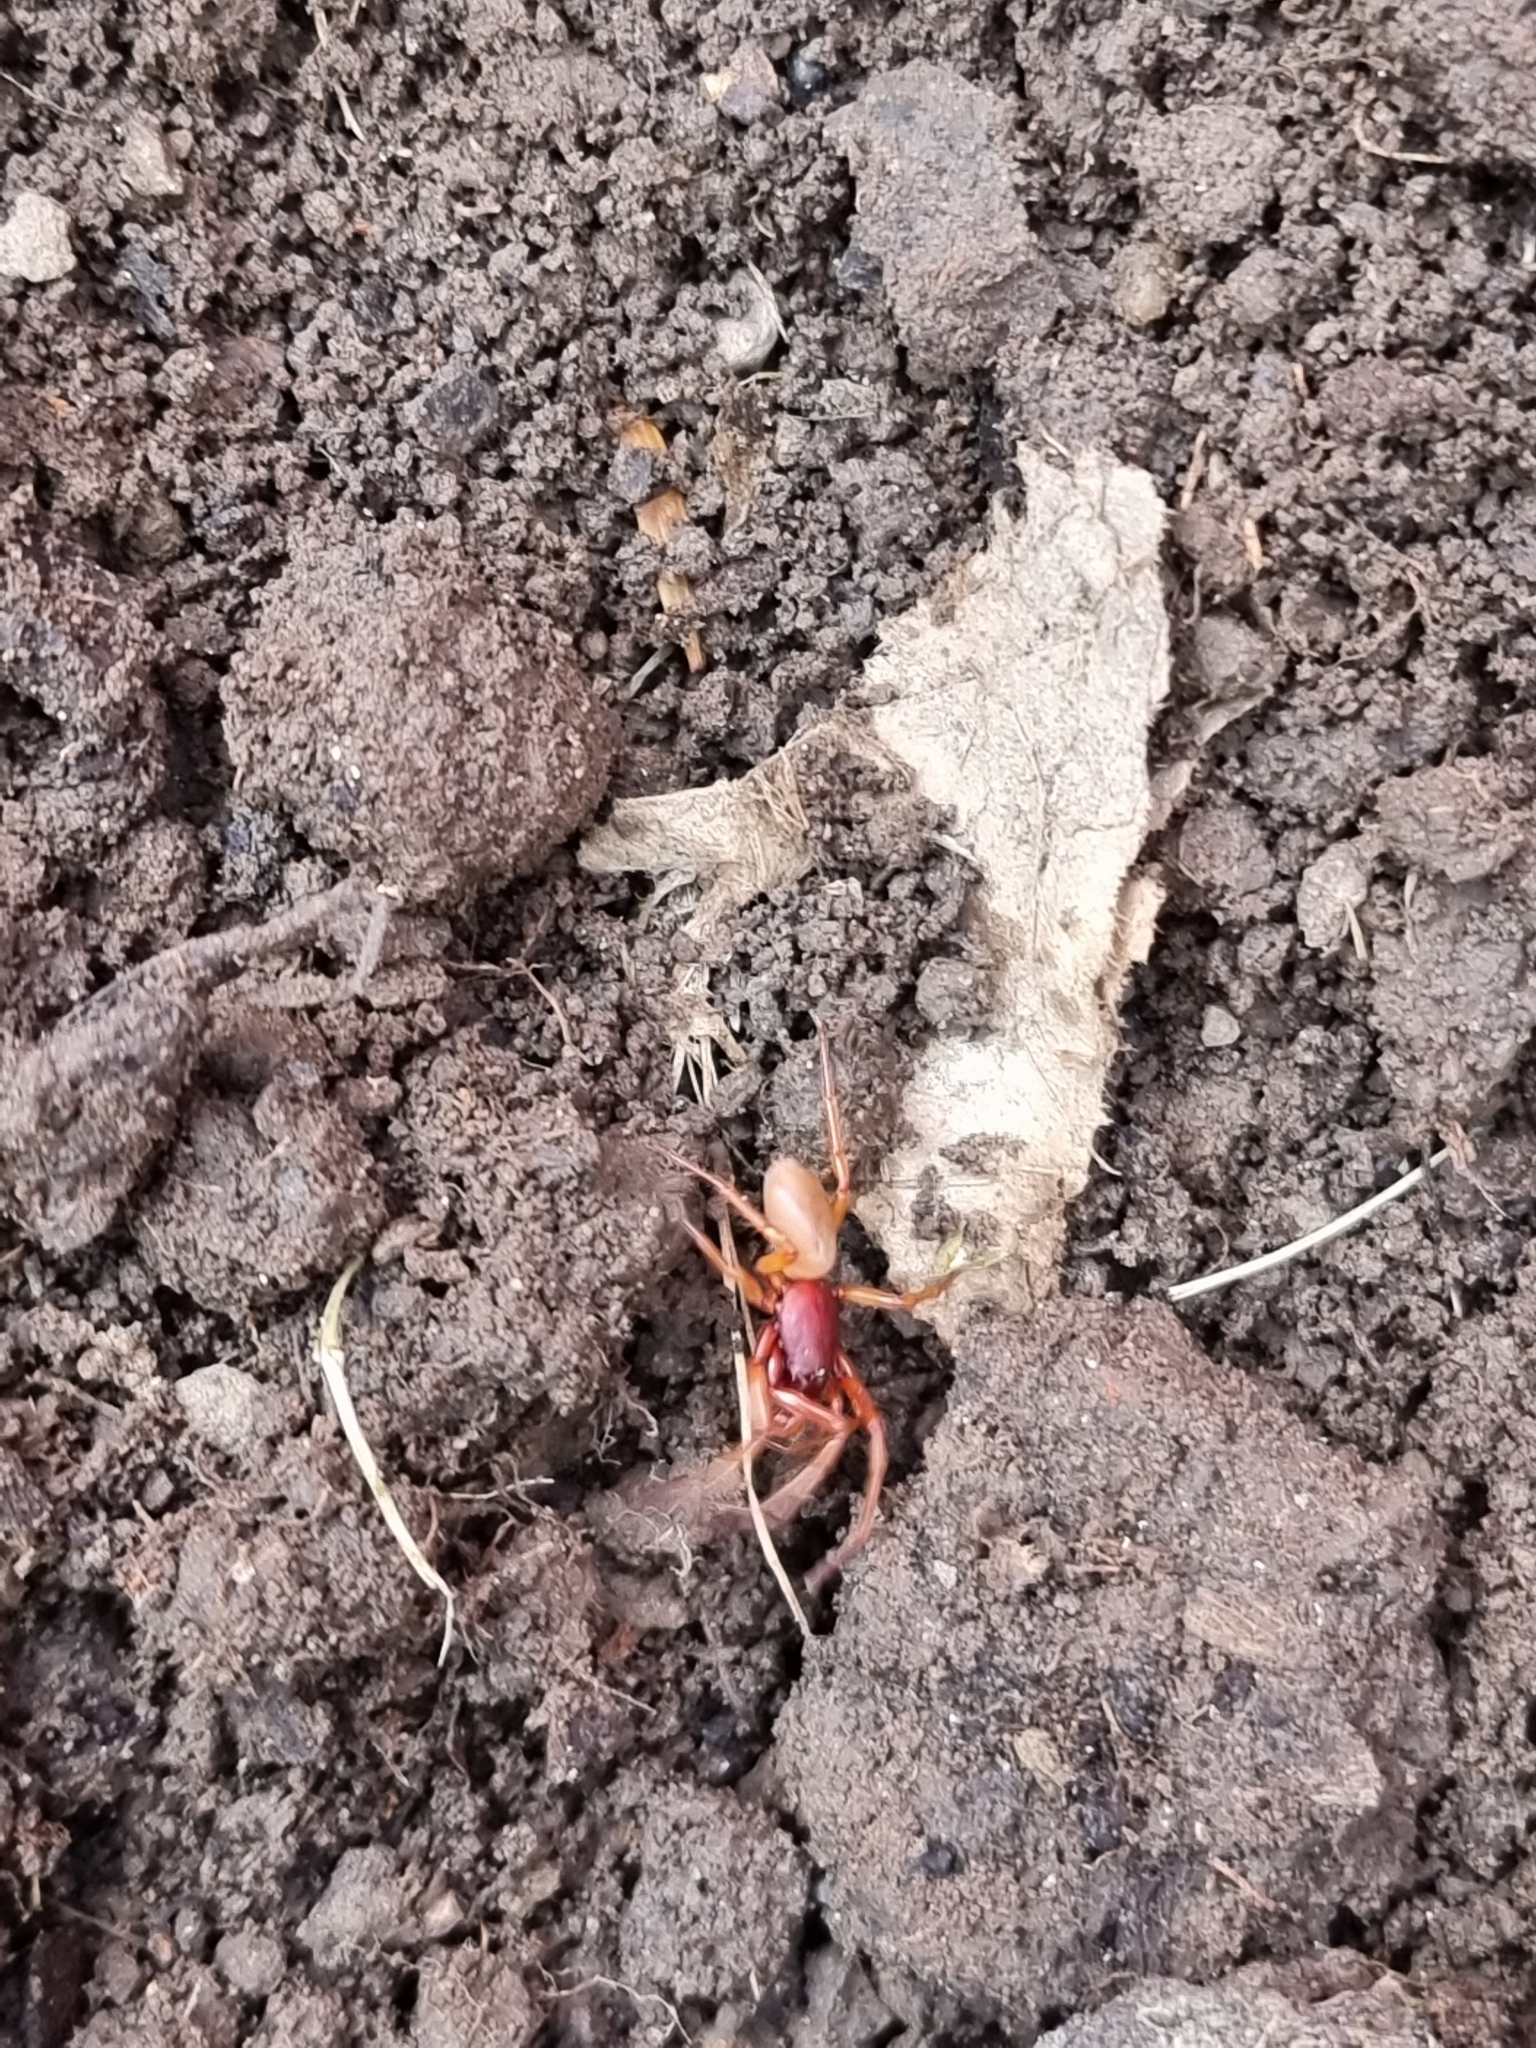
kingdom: Animalia
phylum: Arthropoda
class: Arachnida
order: Araneae
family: Dysderidae
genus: Dysdera
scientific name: Dysdera crocata
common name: Woodlouse spider
